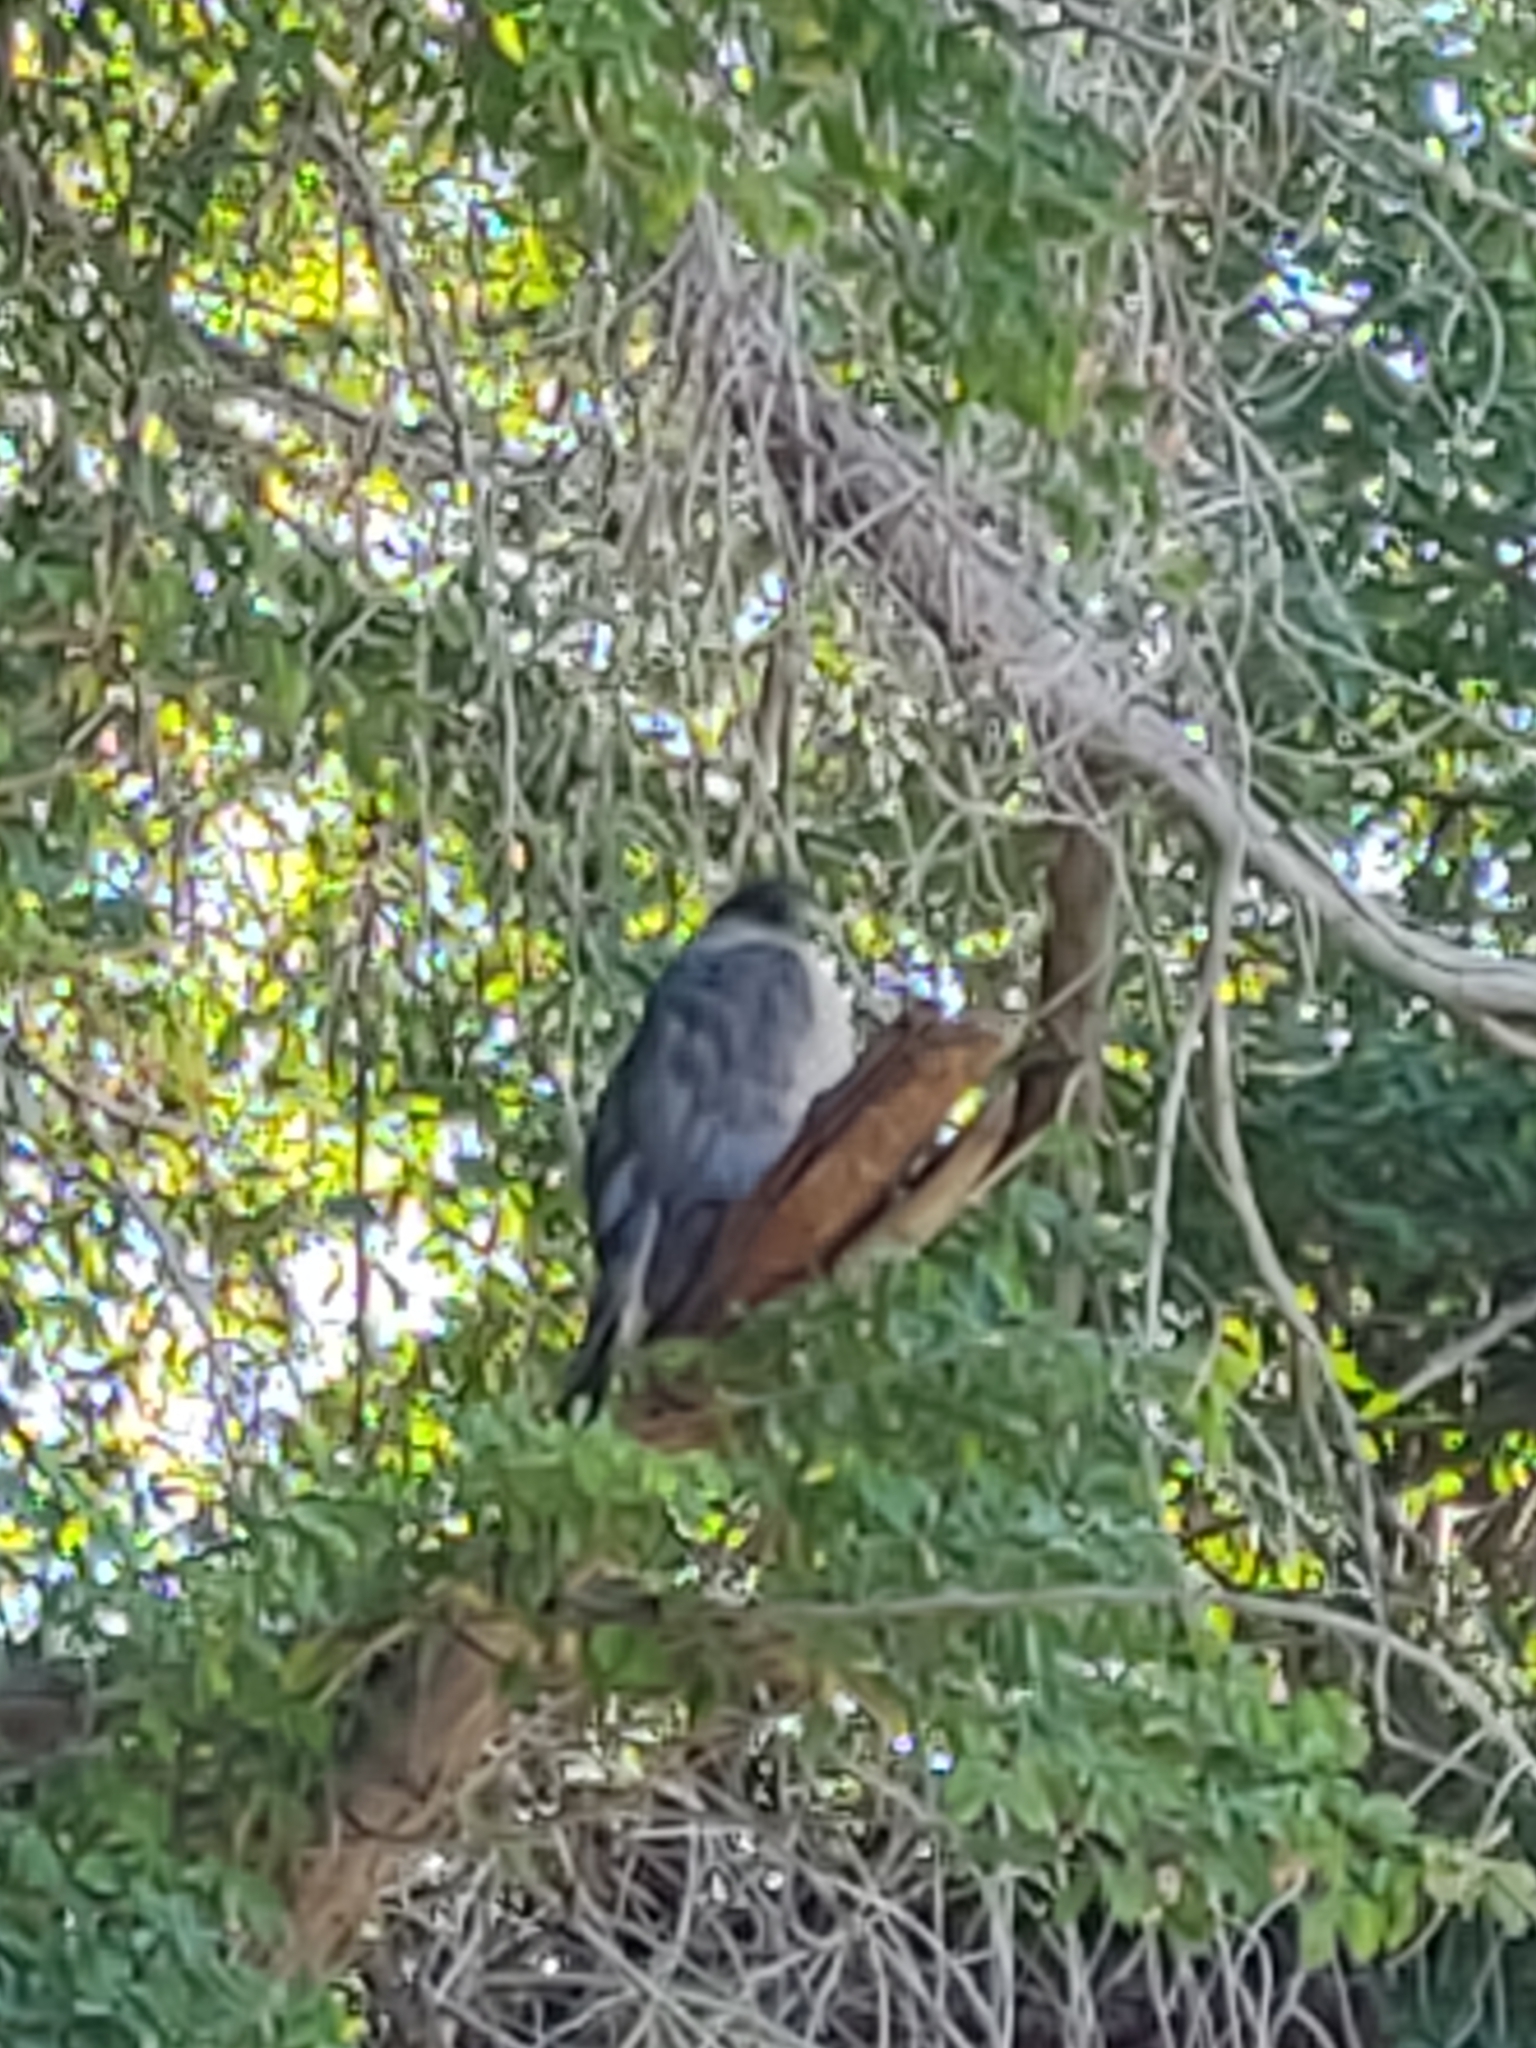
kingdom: Animalia
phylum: Chordata
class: Aves
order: Accipitriformes
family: Accipitridae
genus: Accipiter
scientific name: Accipiter cooperii
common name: Cooper's hawk
